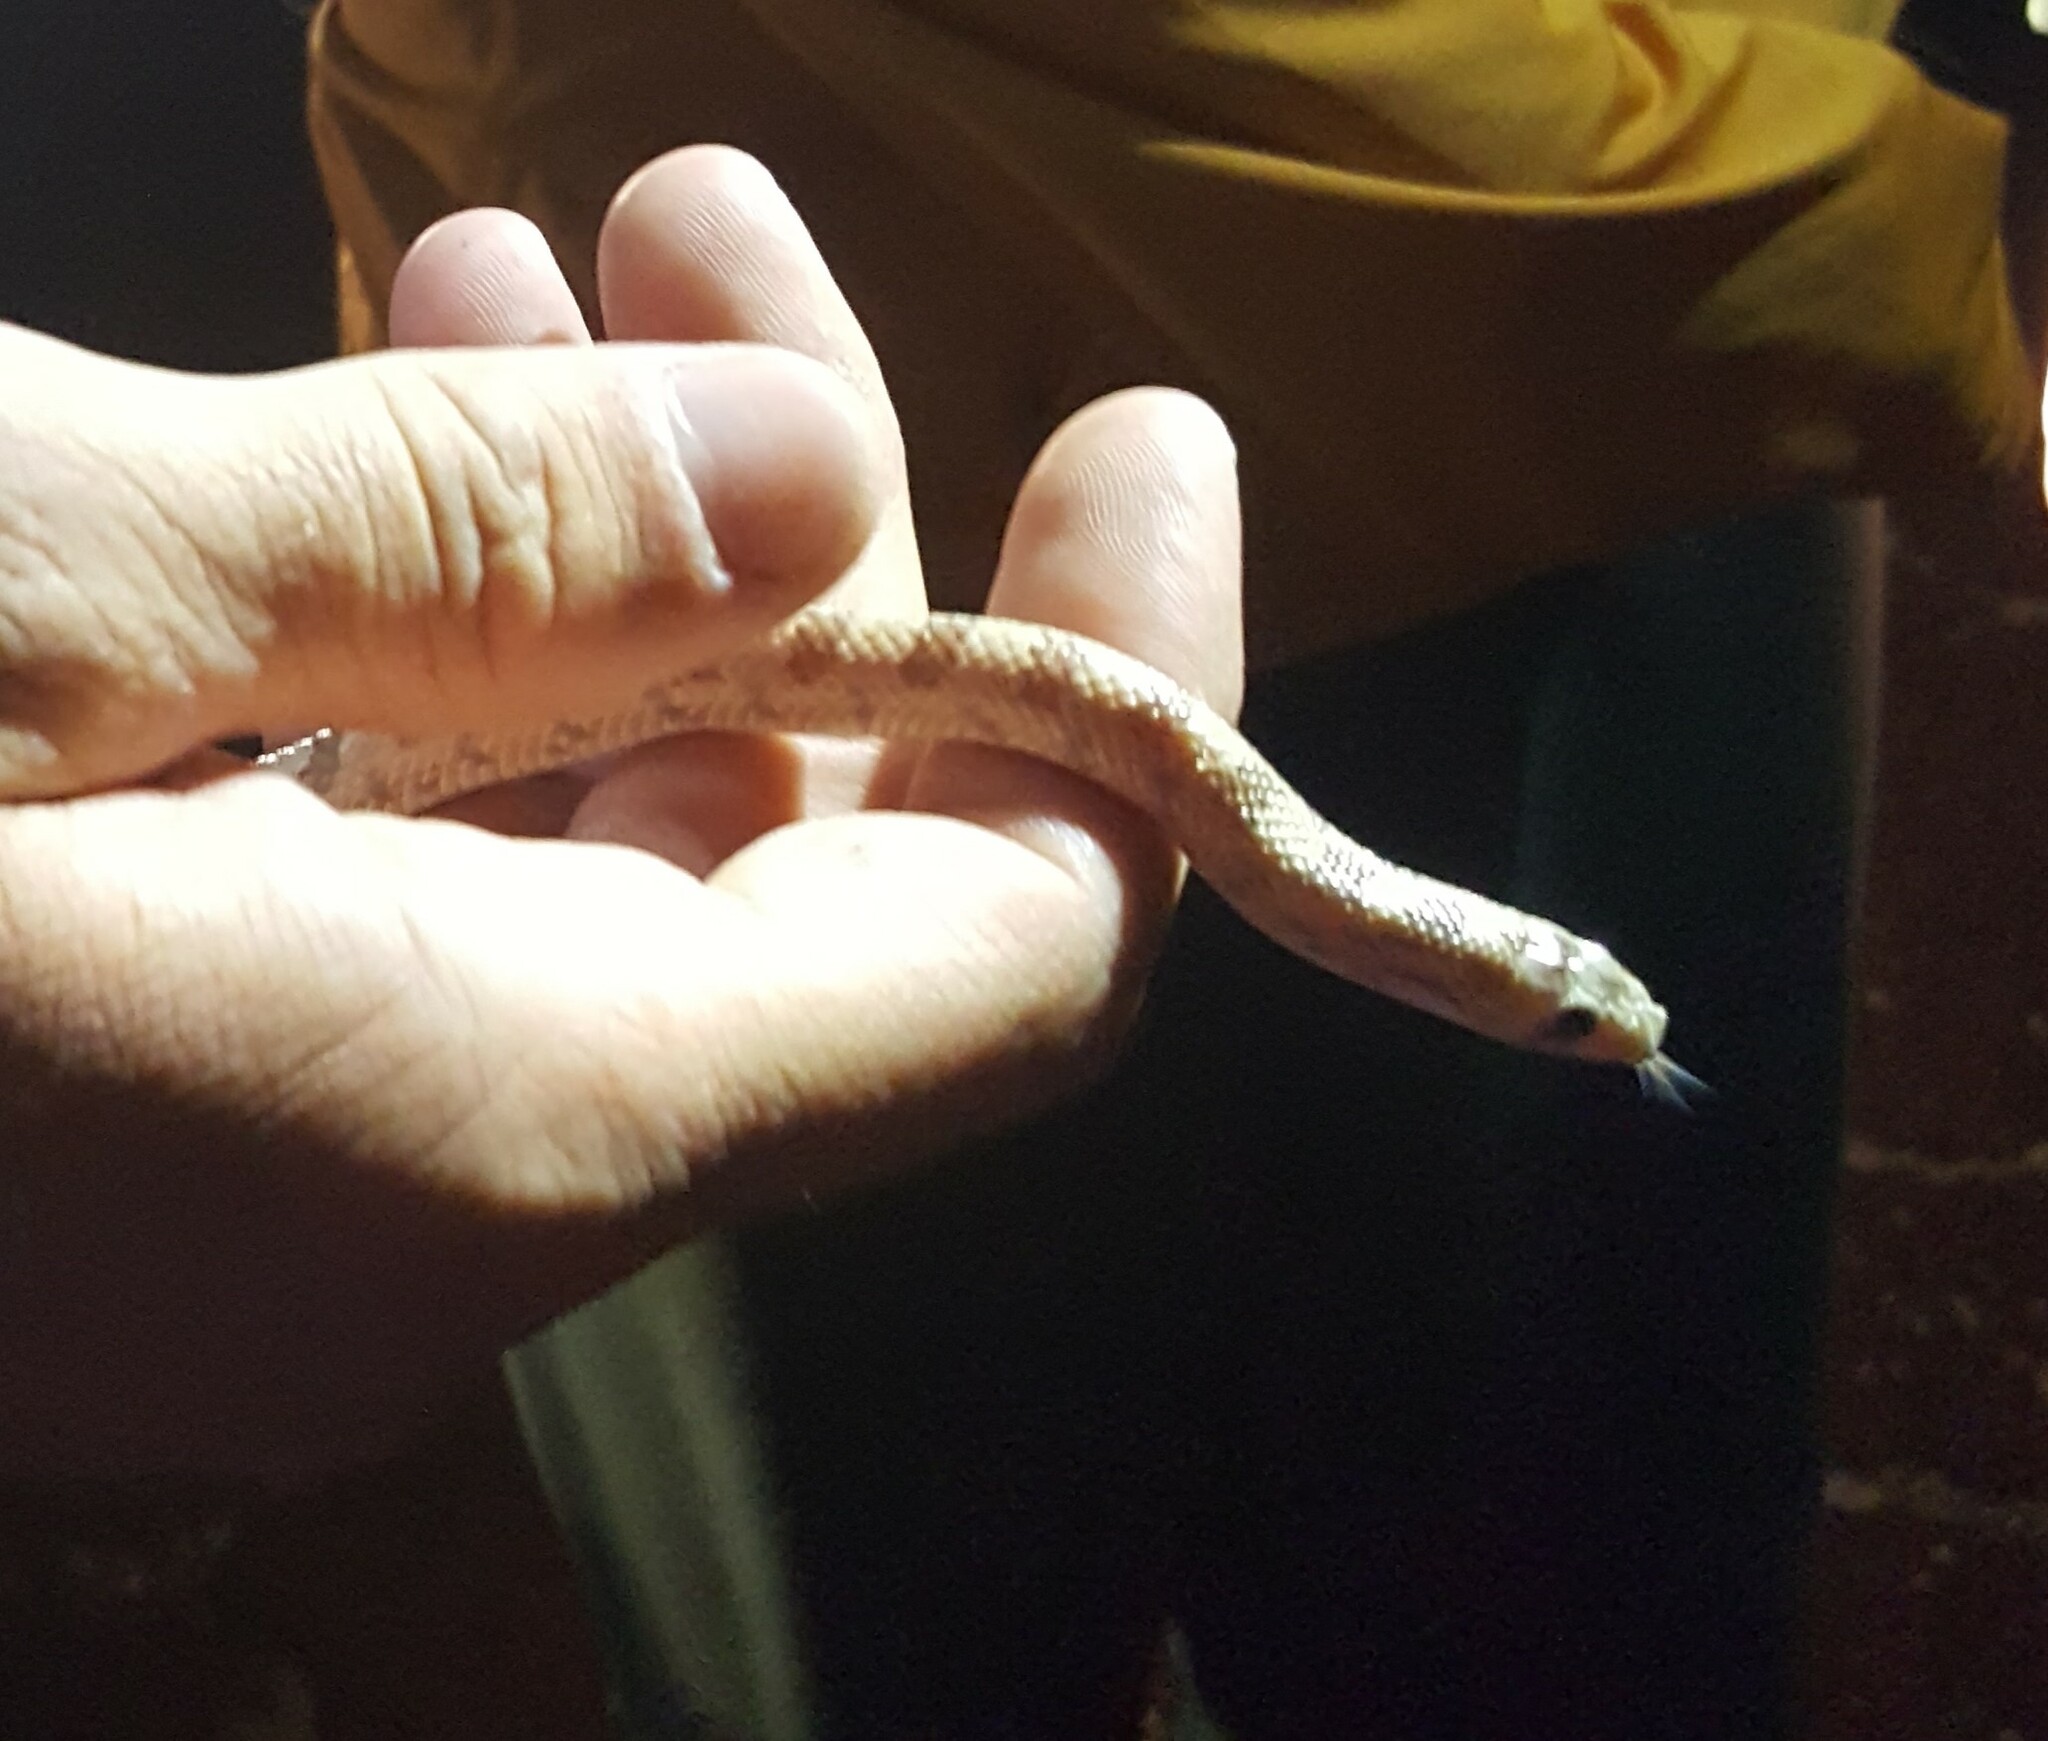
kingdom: Animalia
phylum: Chordata
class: Squamata
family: Colubridae
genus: Phyllorhynchus
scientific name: Phyllorhynchus decurtatus
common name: Spotted leafnose snake
